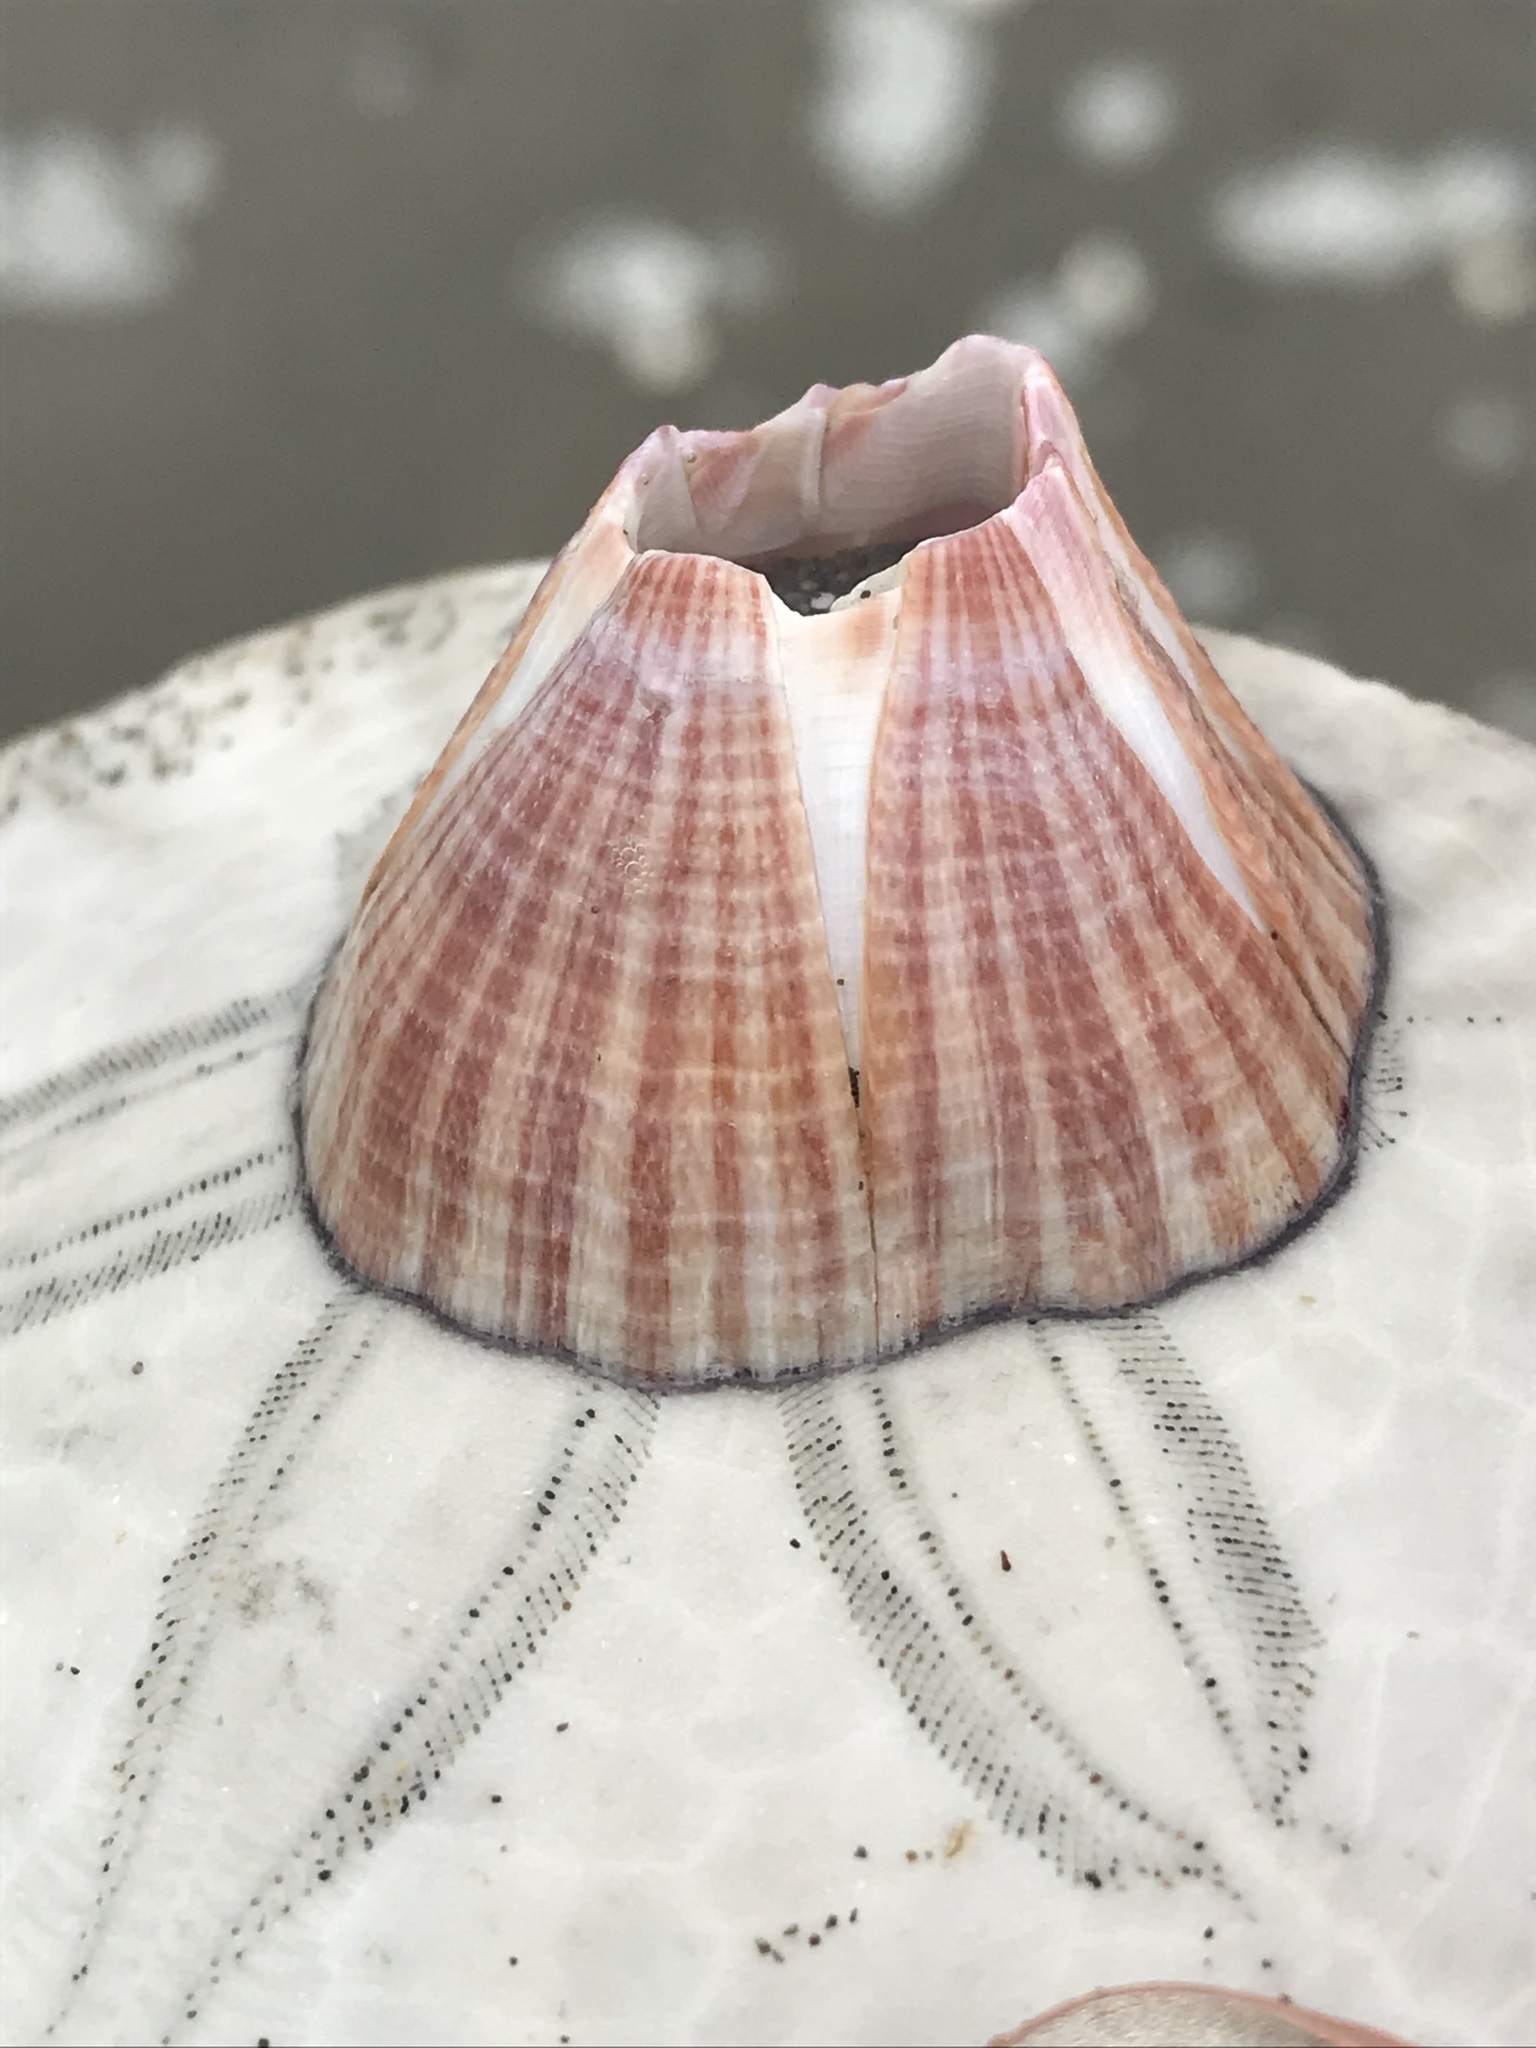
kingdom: Animalia
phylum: Arthropoda
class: Maxillopoda
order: Sessilia
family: Balanidae
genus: Paraconcavus
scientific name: Paraconcavus pacificus
